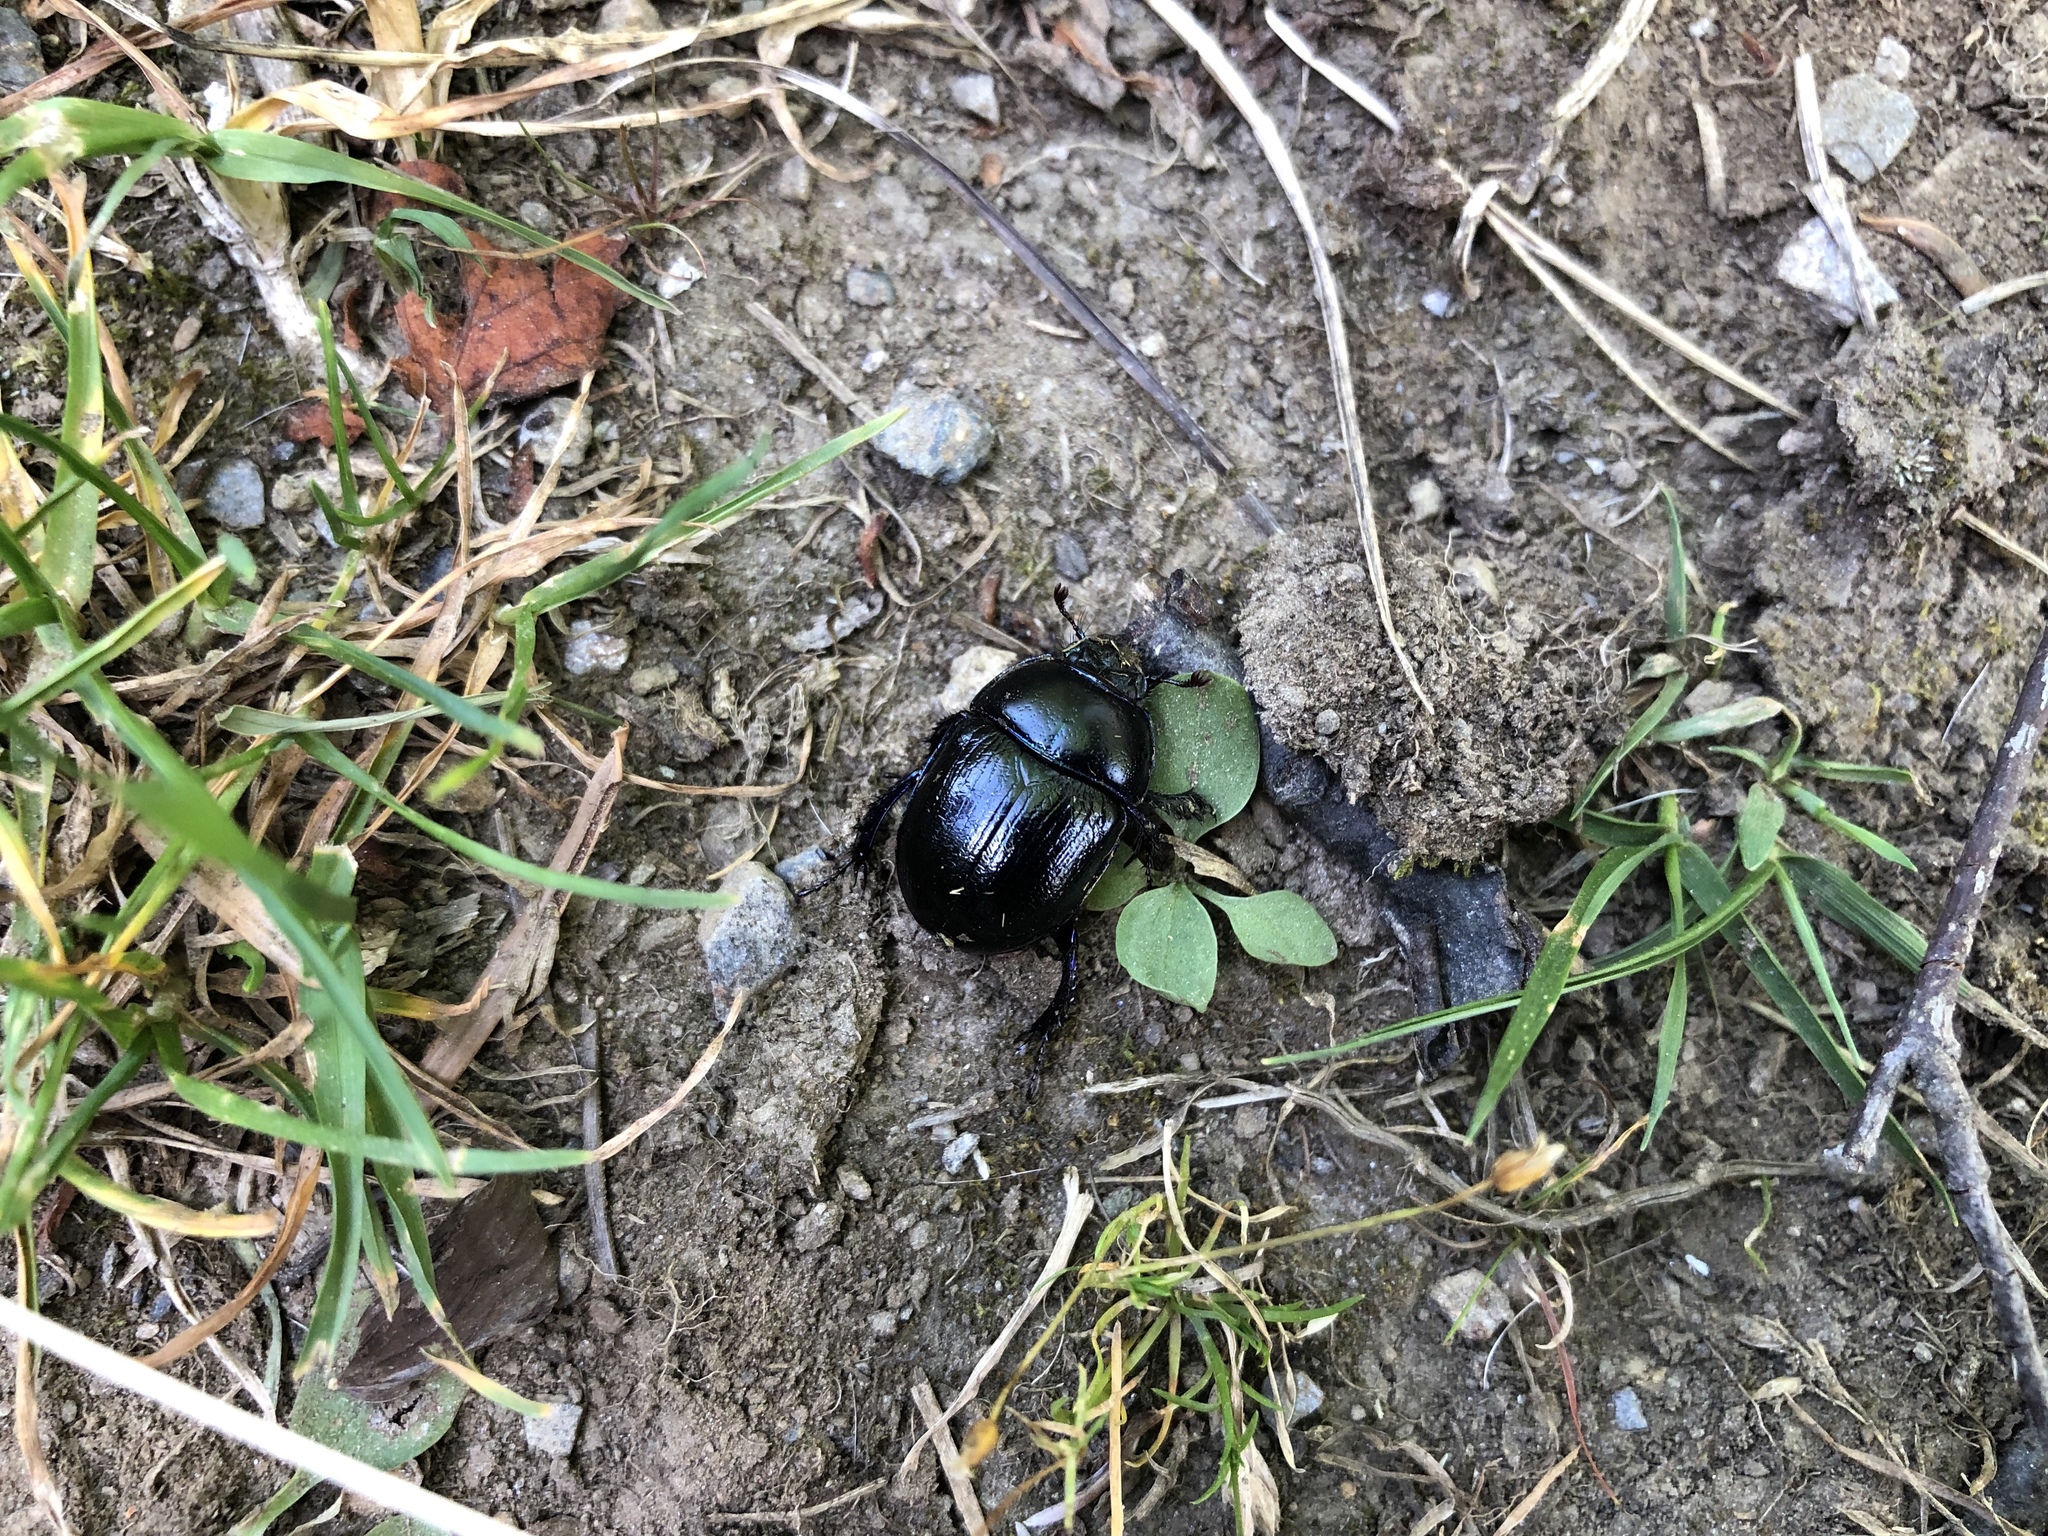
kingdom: Animalia
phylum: Arthropoda
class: Insecta
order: Coleoptera
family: Geotrupidae
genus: Anoplotrupes
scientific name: Anoplotrupes stercorosus
